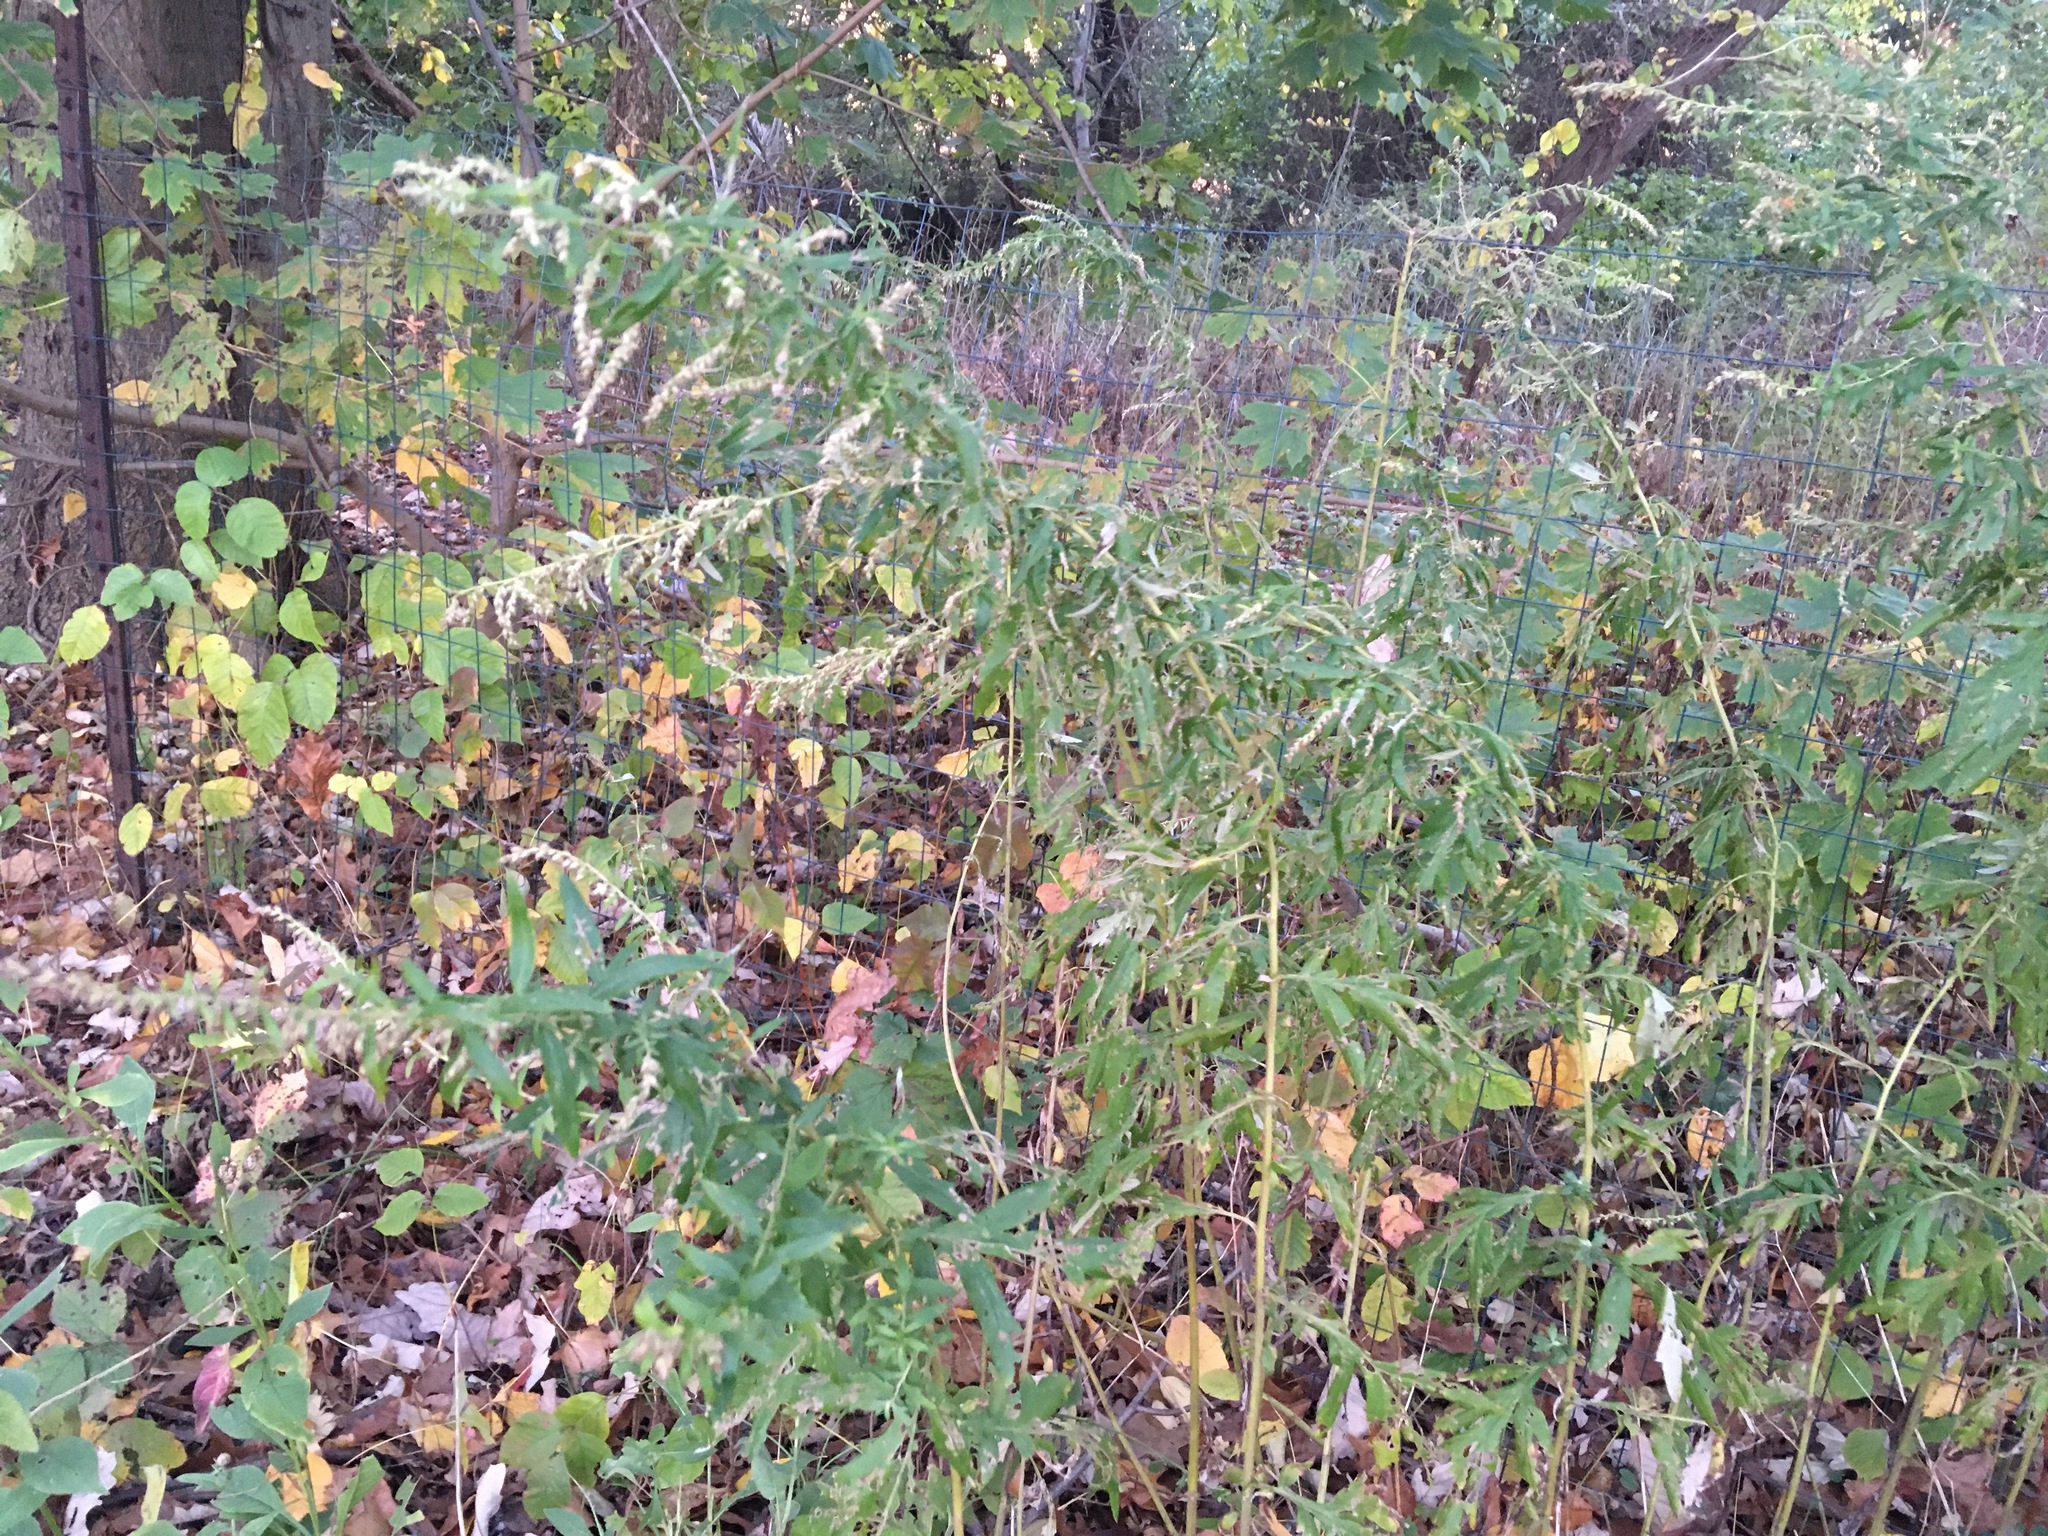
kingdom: Plantae
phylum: Tracheophyta
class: Magnoliopsida
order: Asterales
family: Asteraceae
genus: Artemisia
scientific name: Artemisia vulgaris
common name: Mugwort
